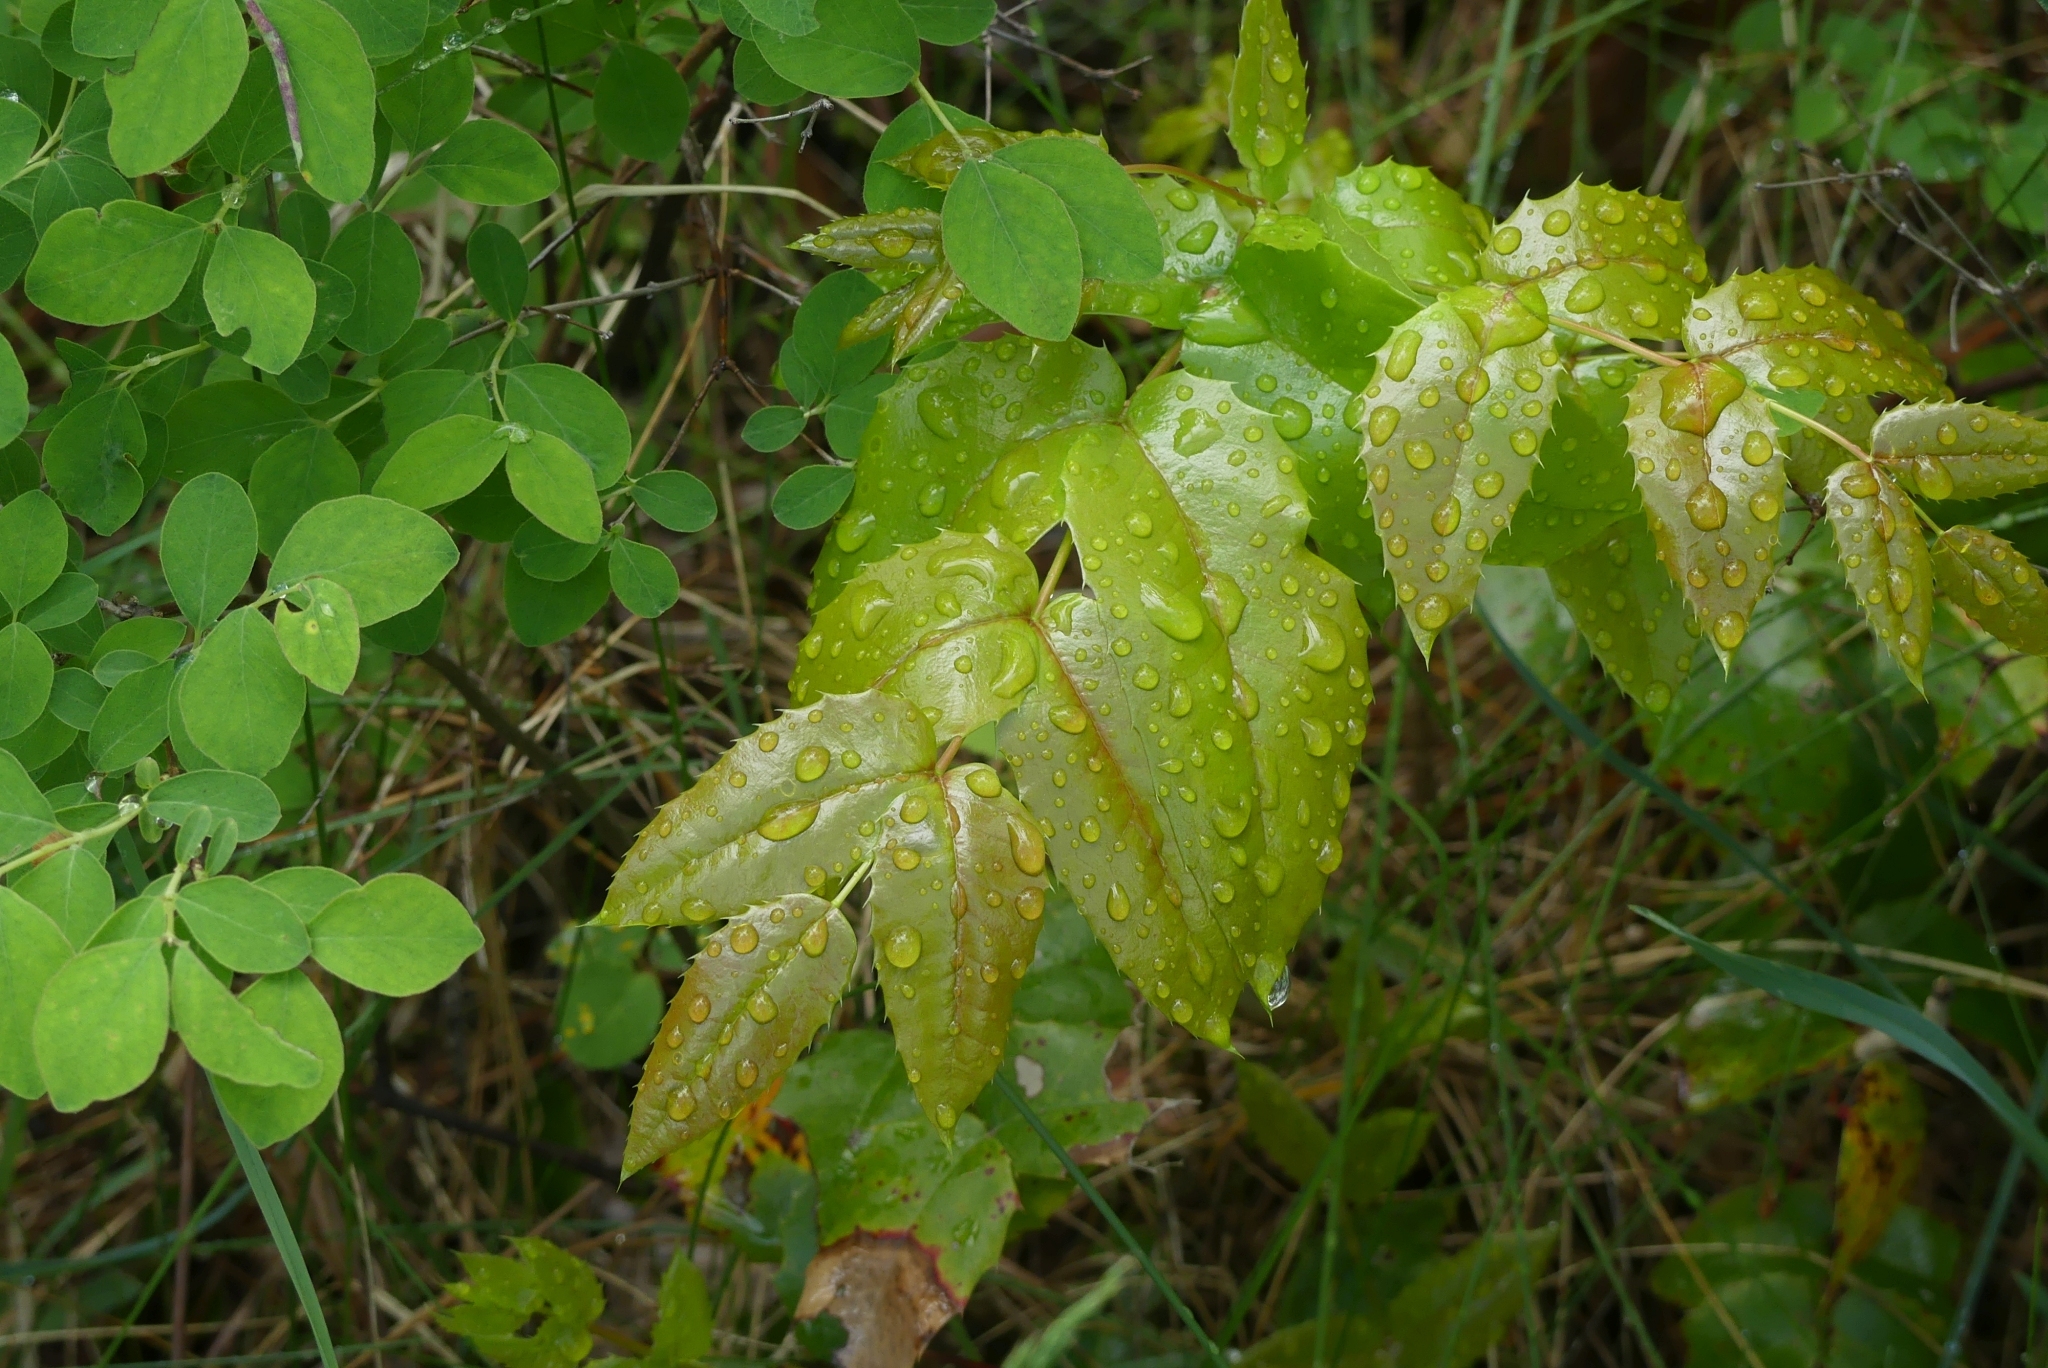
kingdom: Plantae
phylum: Tracheophyta
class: Magnoliopsida
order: Ranunculales
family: Berberidaceae
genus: Mahonia
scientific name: Mahonia aquifolium
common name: Oregon-grape
